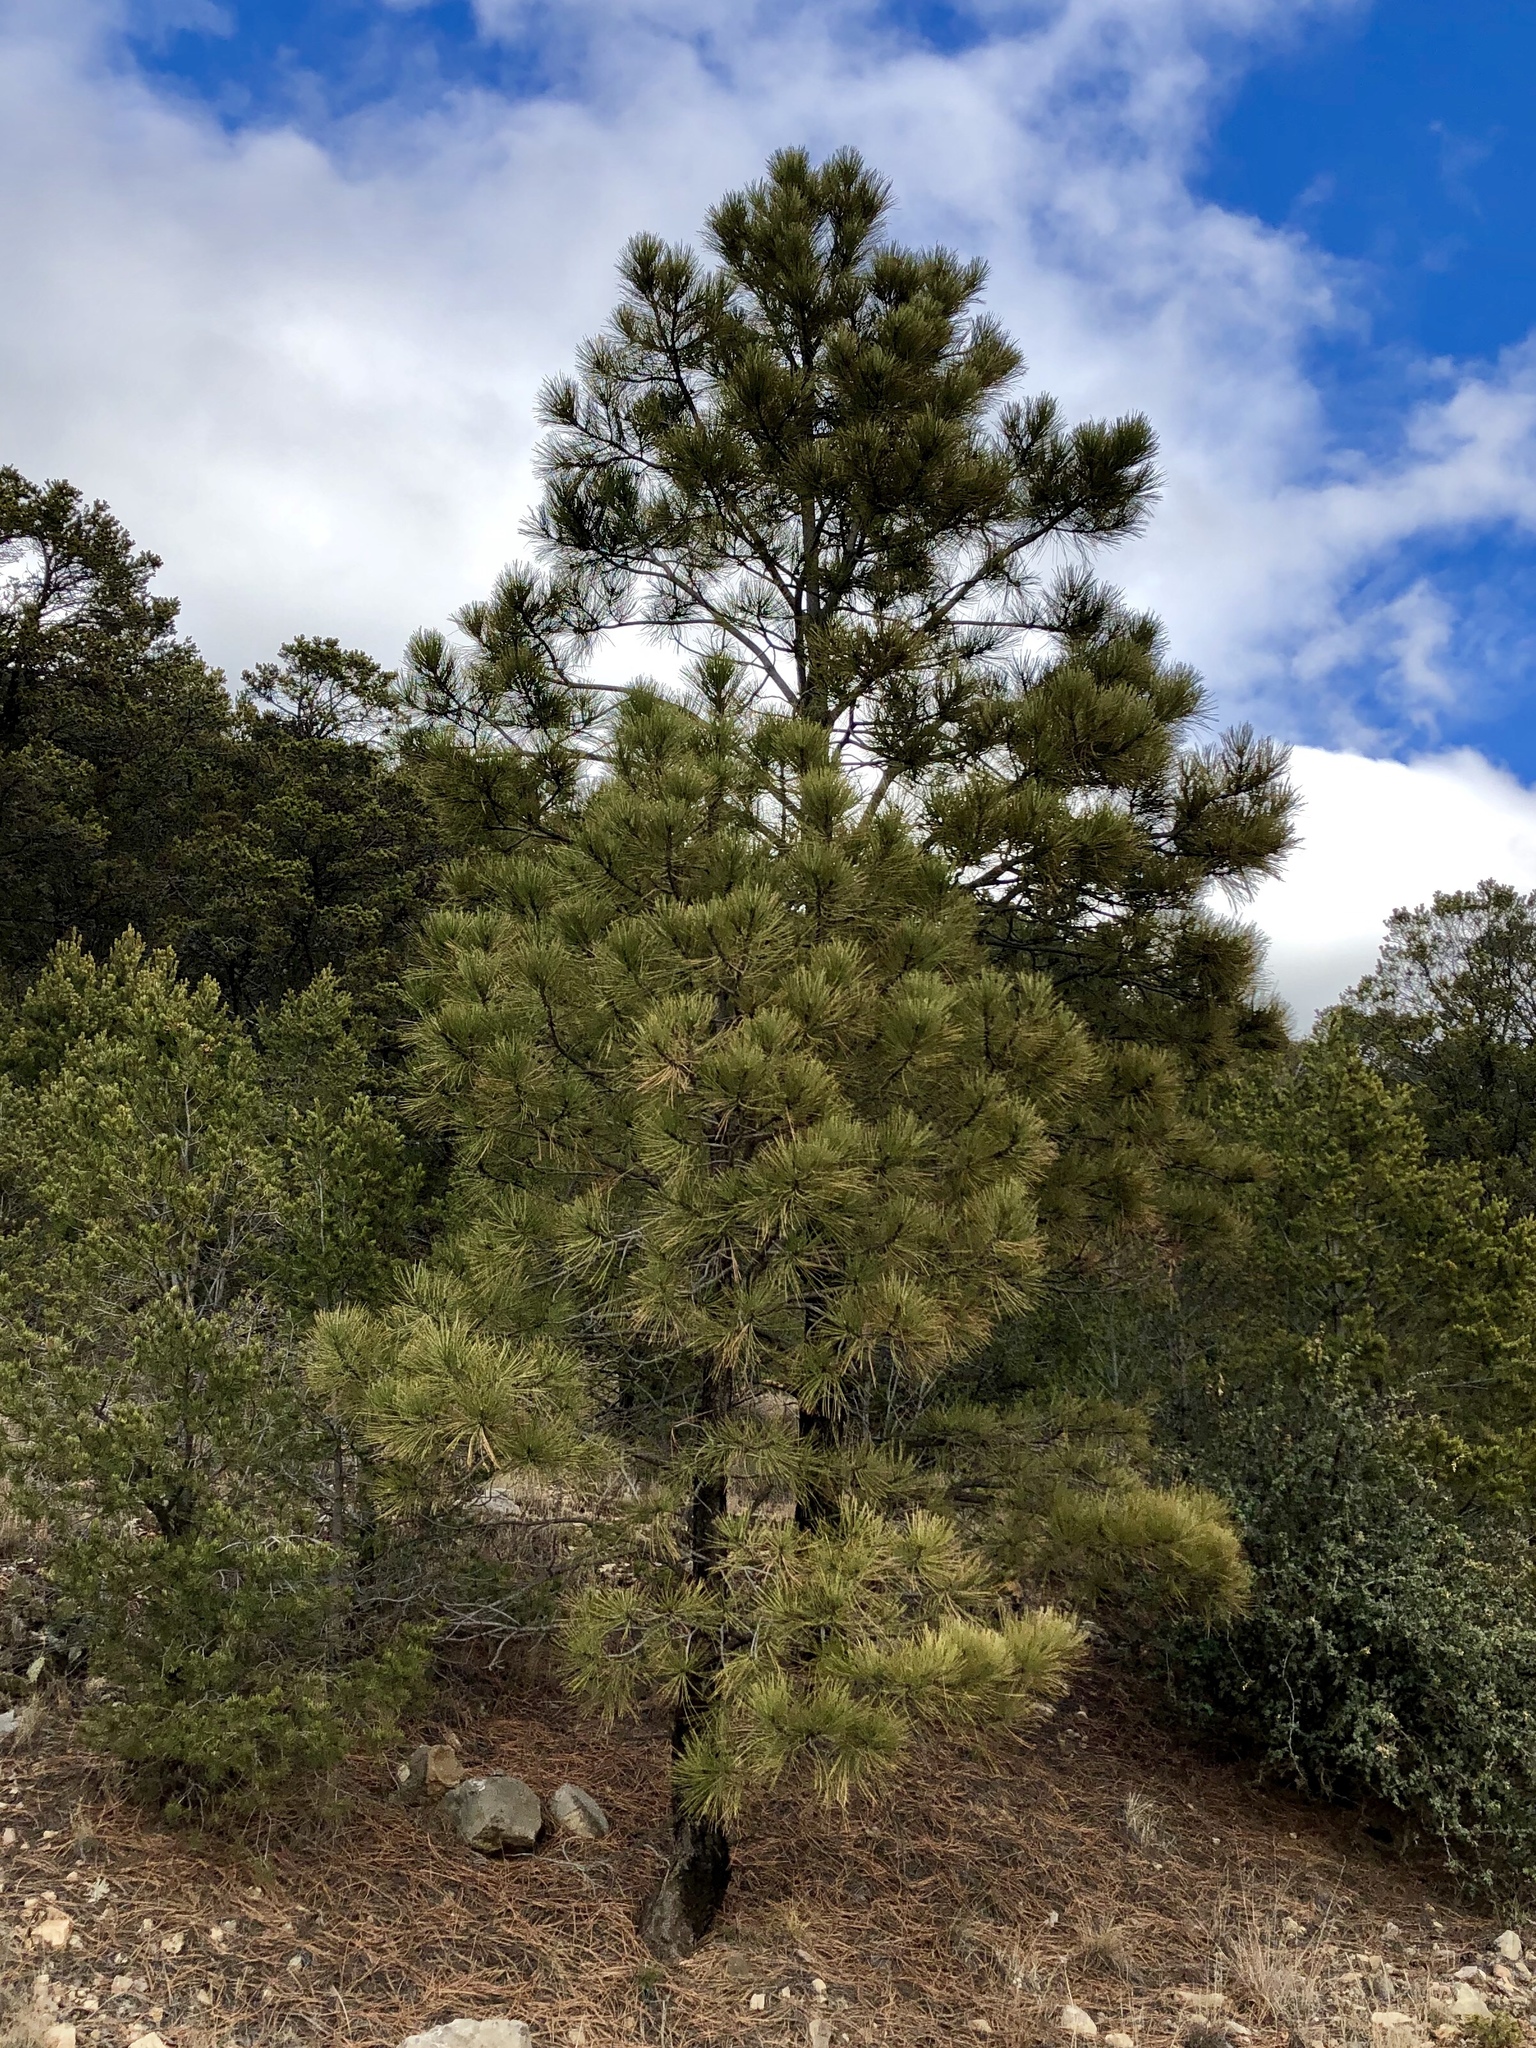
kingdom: Plantae
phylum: Tracheophyta
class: Pinopsida
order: Pinales
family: Pinaceae
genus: Pinus
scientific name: Pinus ponderosa
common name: Western yellow-pine
